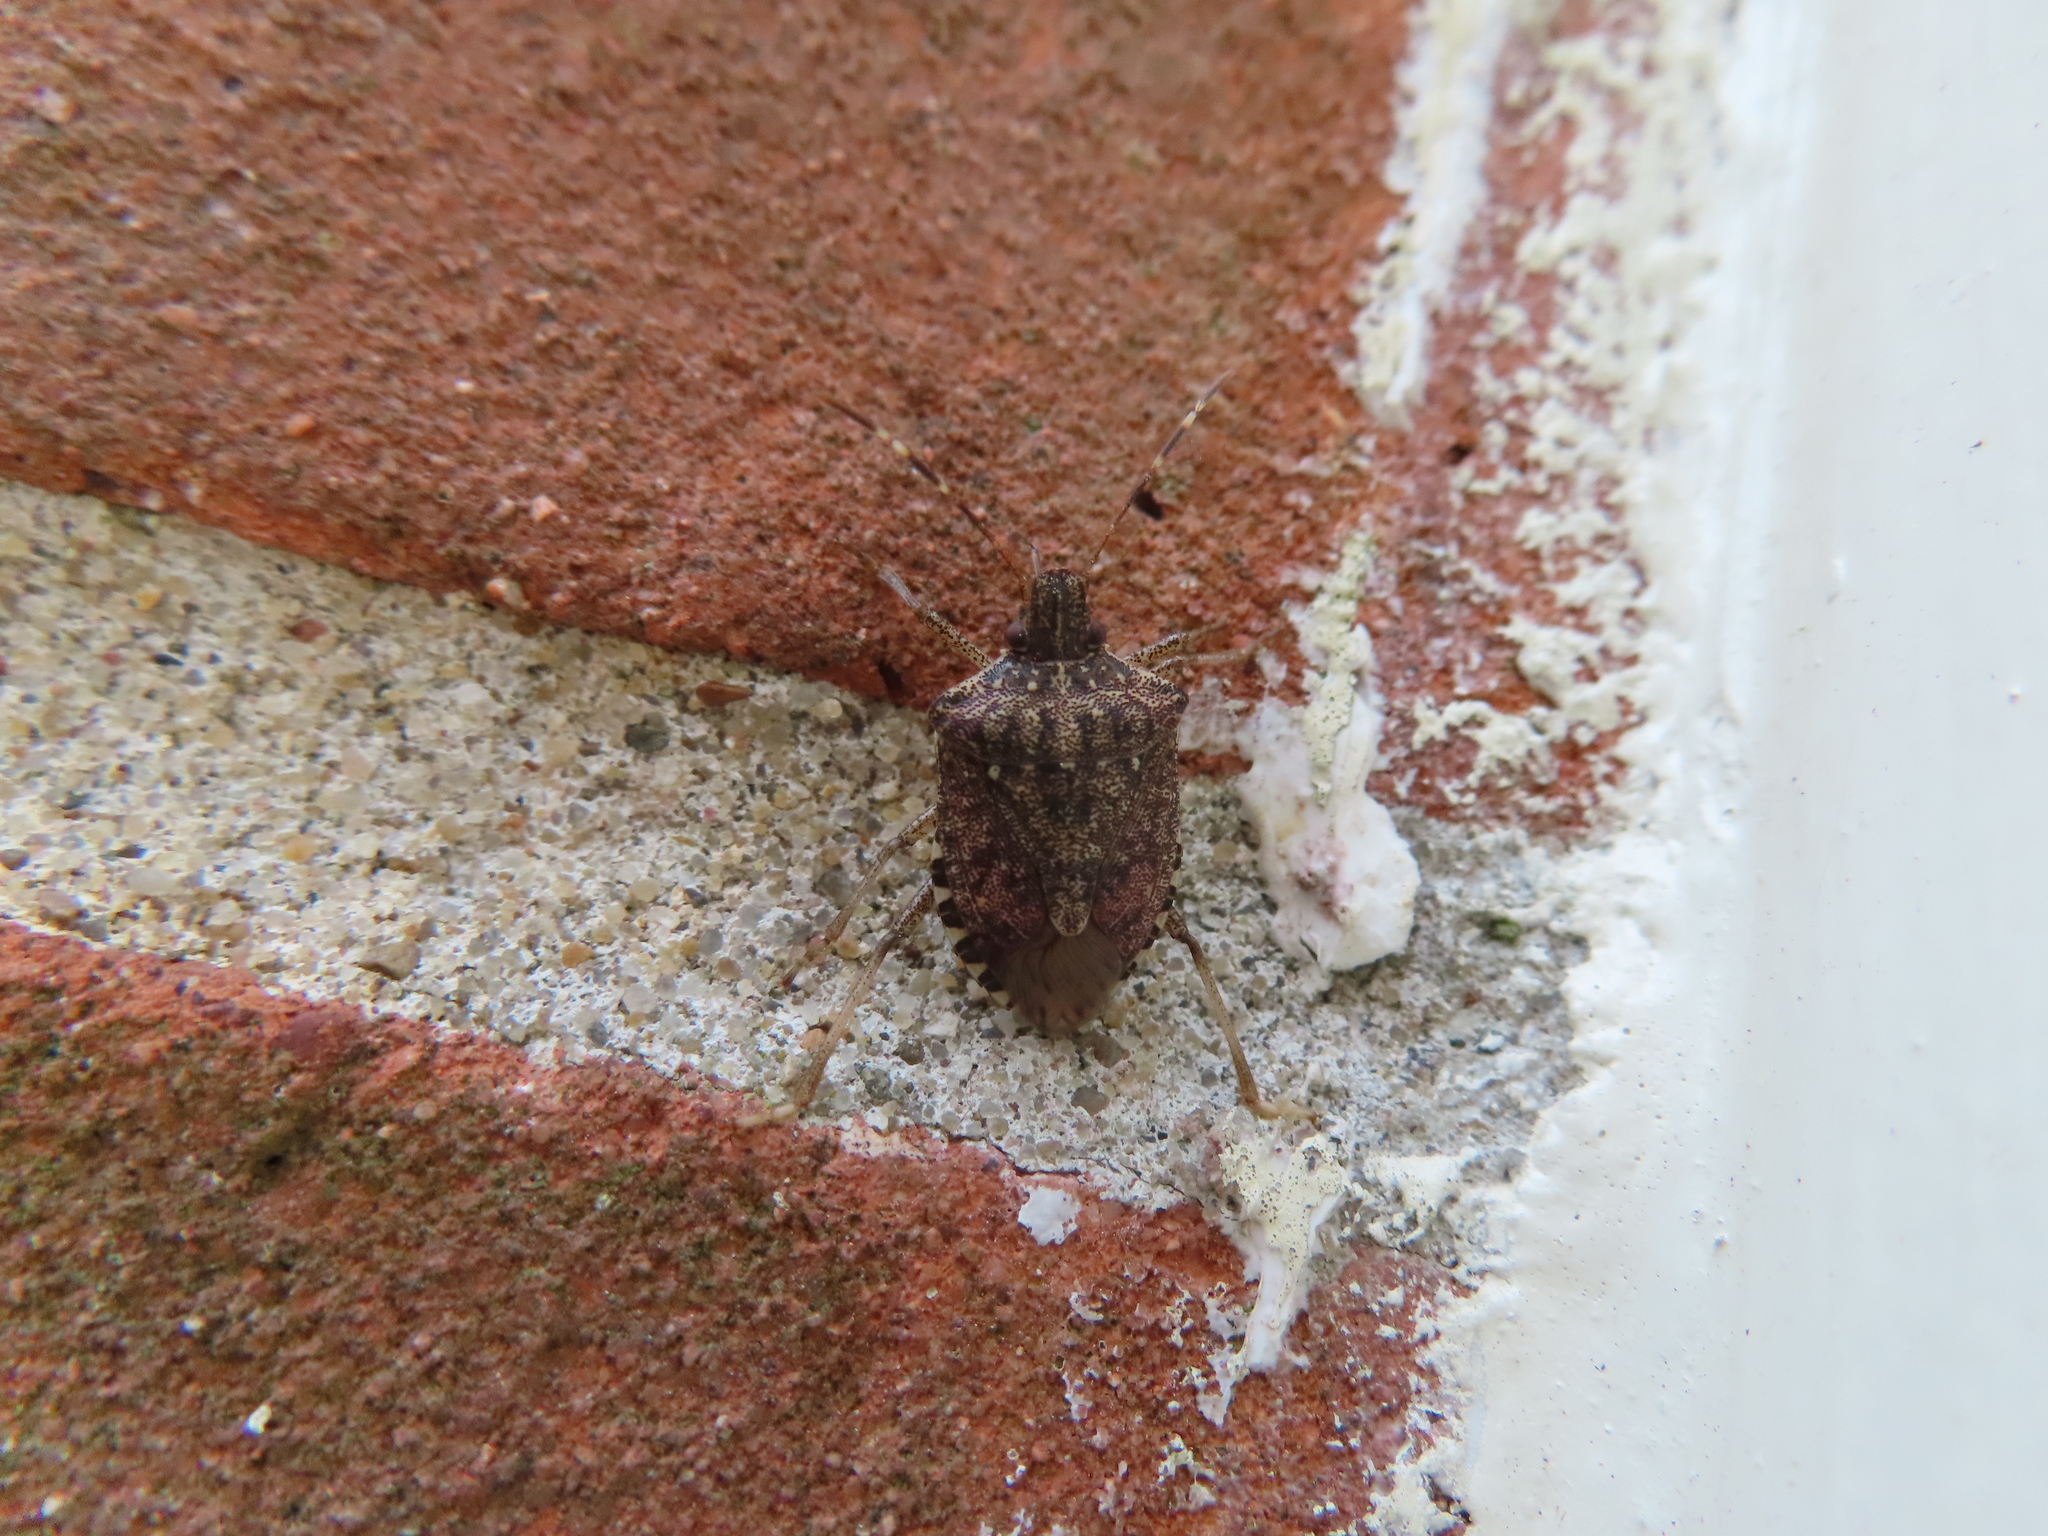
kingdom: Animalia
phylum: Arthropoda
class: Insecta
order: Hemiptera
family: Pentatomidae
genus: Halyomorpha
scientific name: Halyomorpha halys
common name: Brown marmorated stink bug
